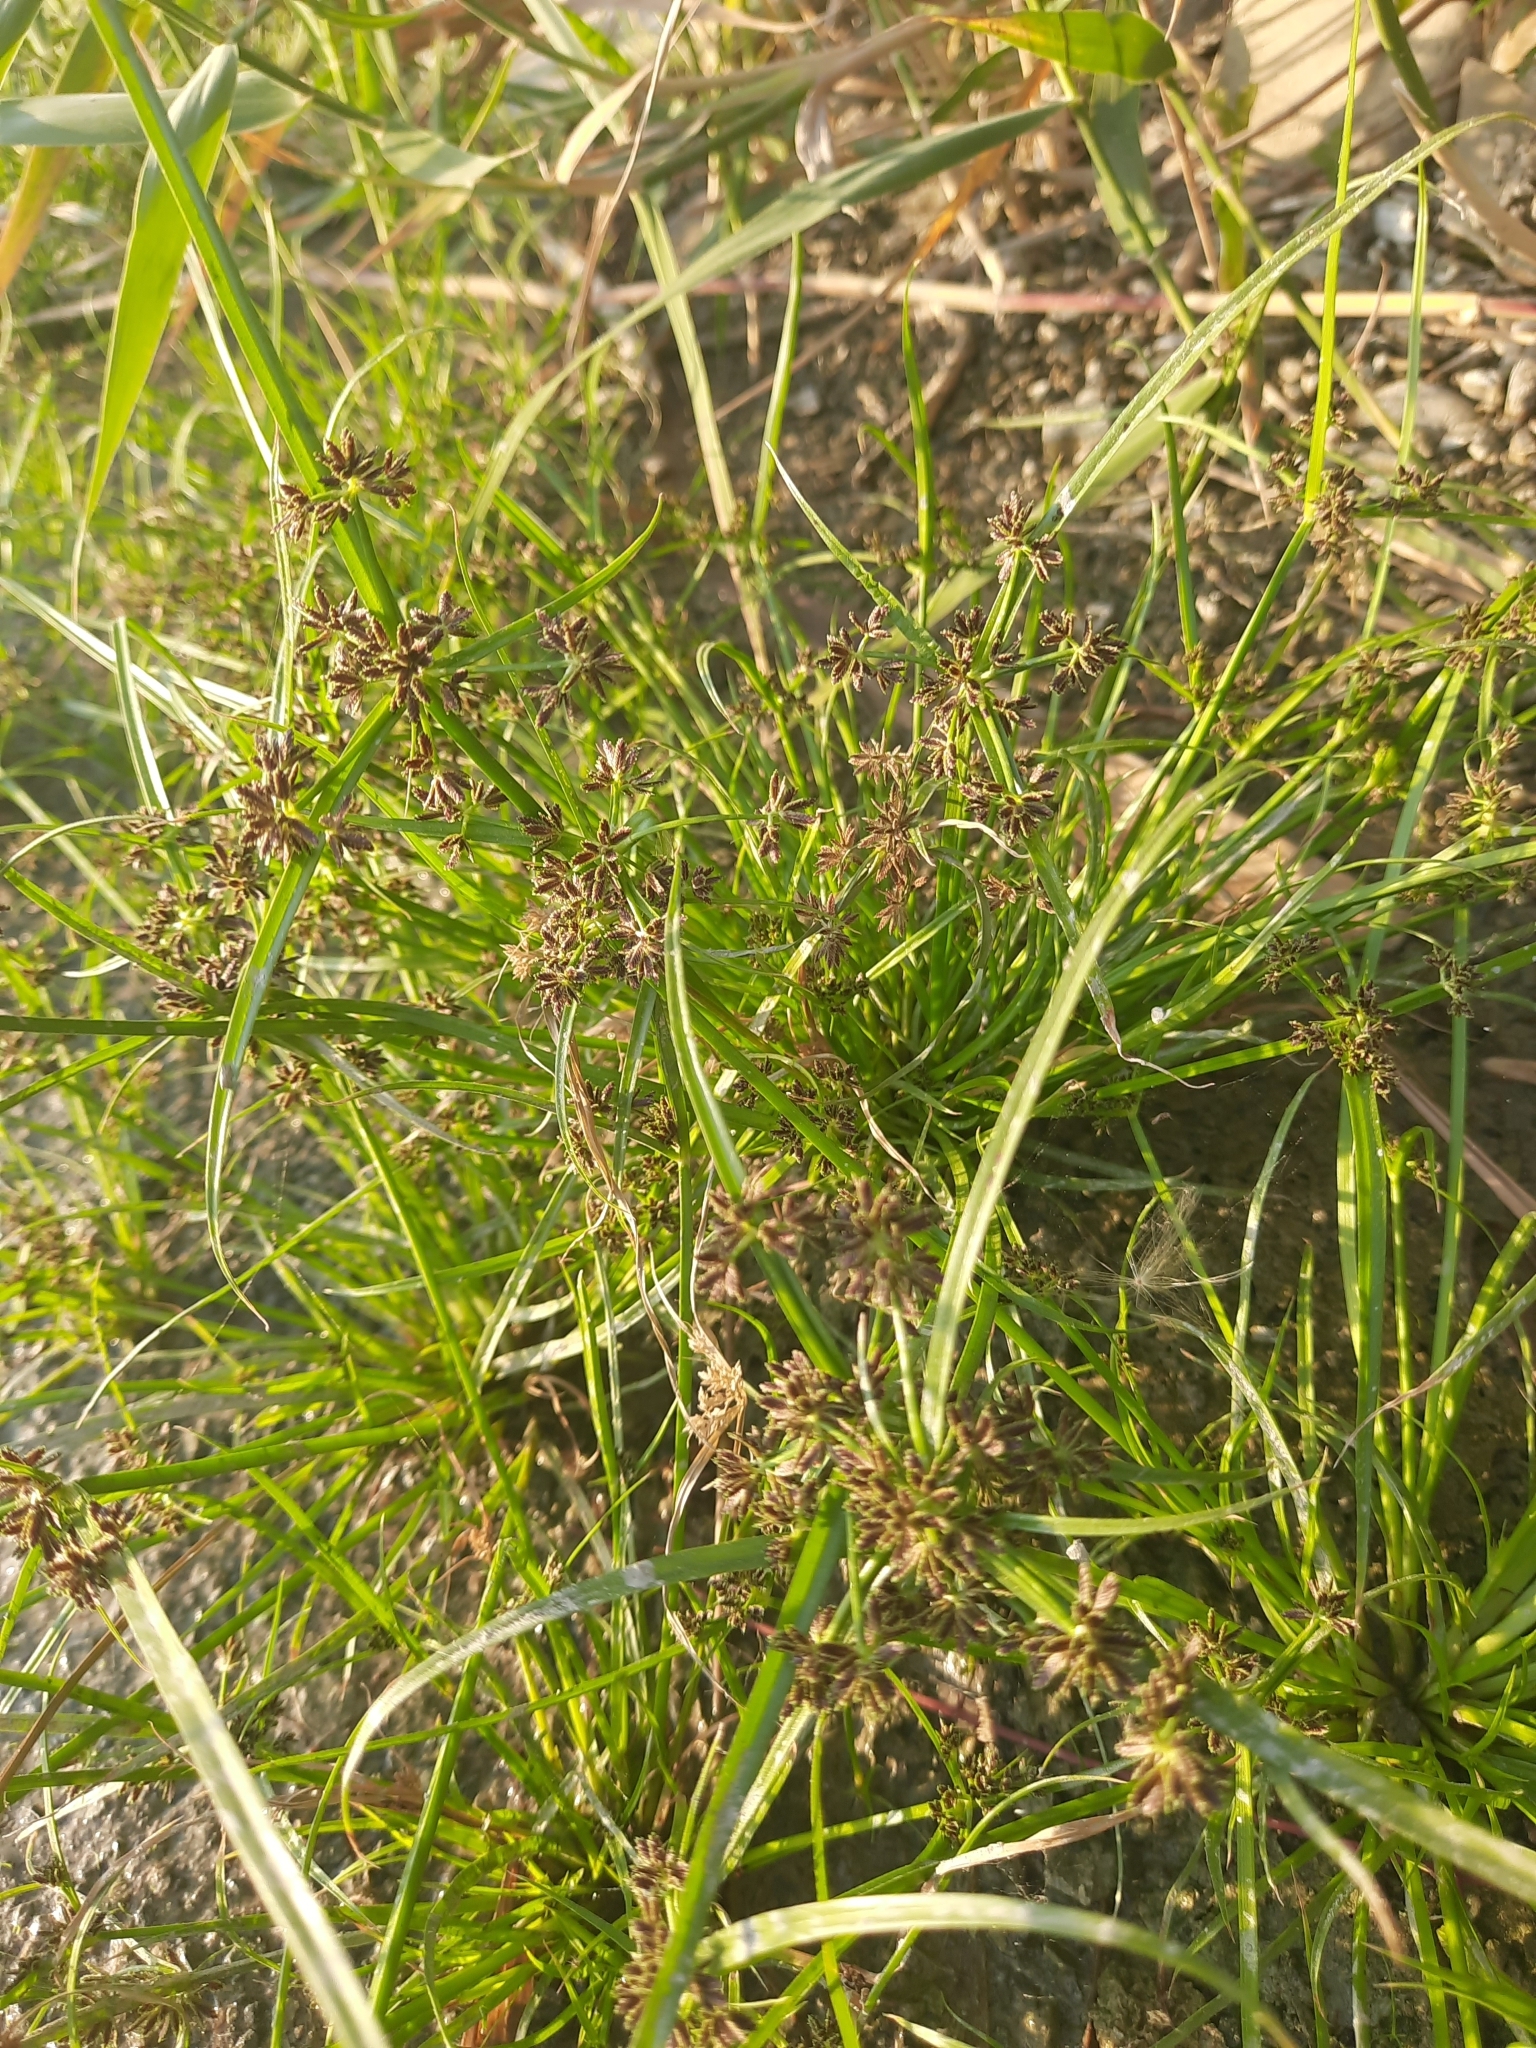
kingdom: Plantae
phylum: Tracheophyta
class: Liliopsida
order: Poales
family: Cyperaceae
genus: Cyperus
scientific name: Cyperus fuscus
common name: Brown galingale
